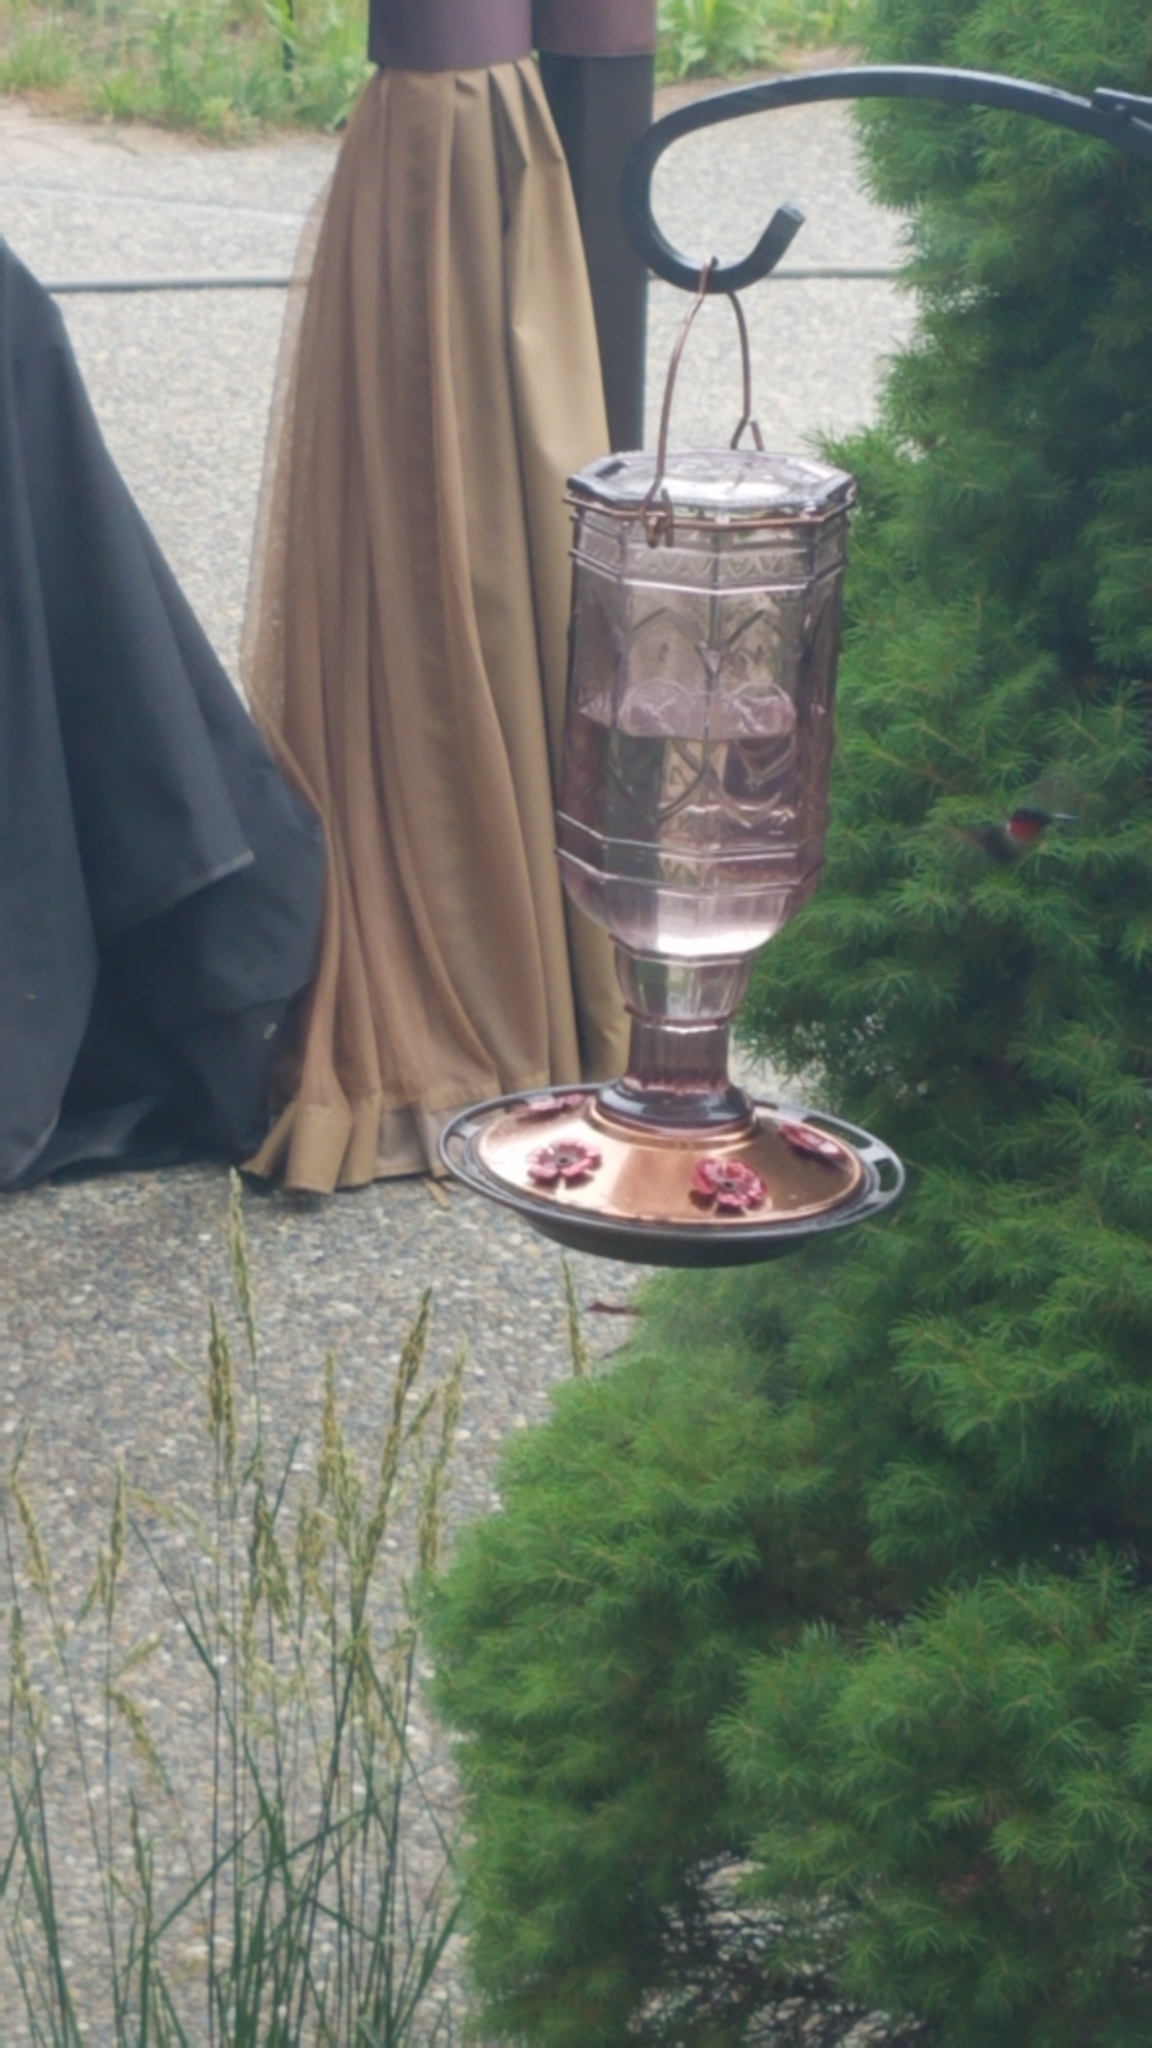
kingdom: Animalia
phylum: Chordata
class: Aves
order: Apodiformes
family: Trochilidae
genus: Archilochus
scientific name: Archilochus colubris
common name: Ruby-throated hummingbird
